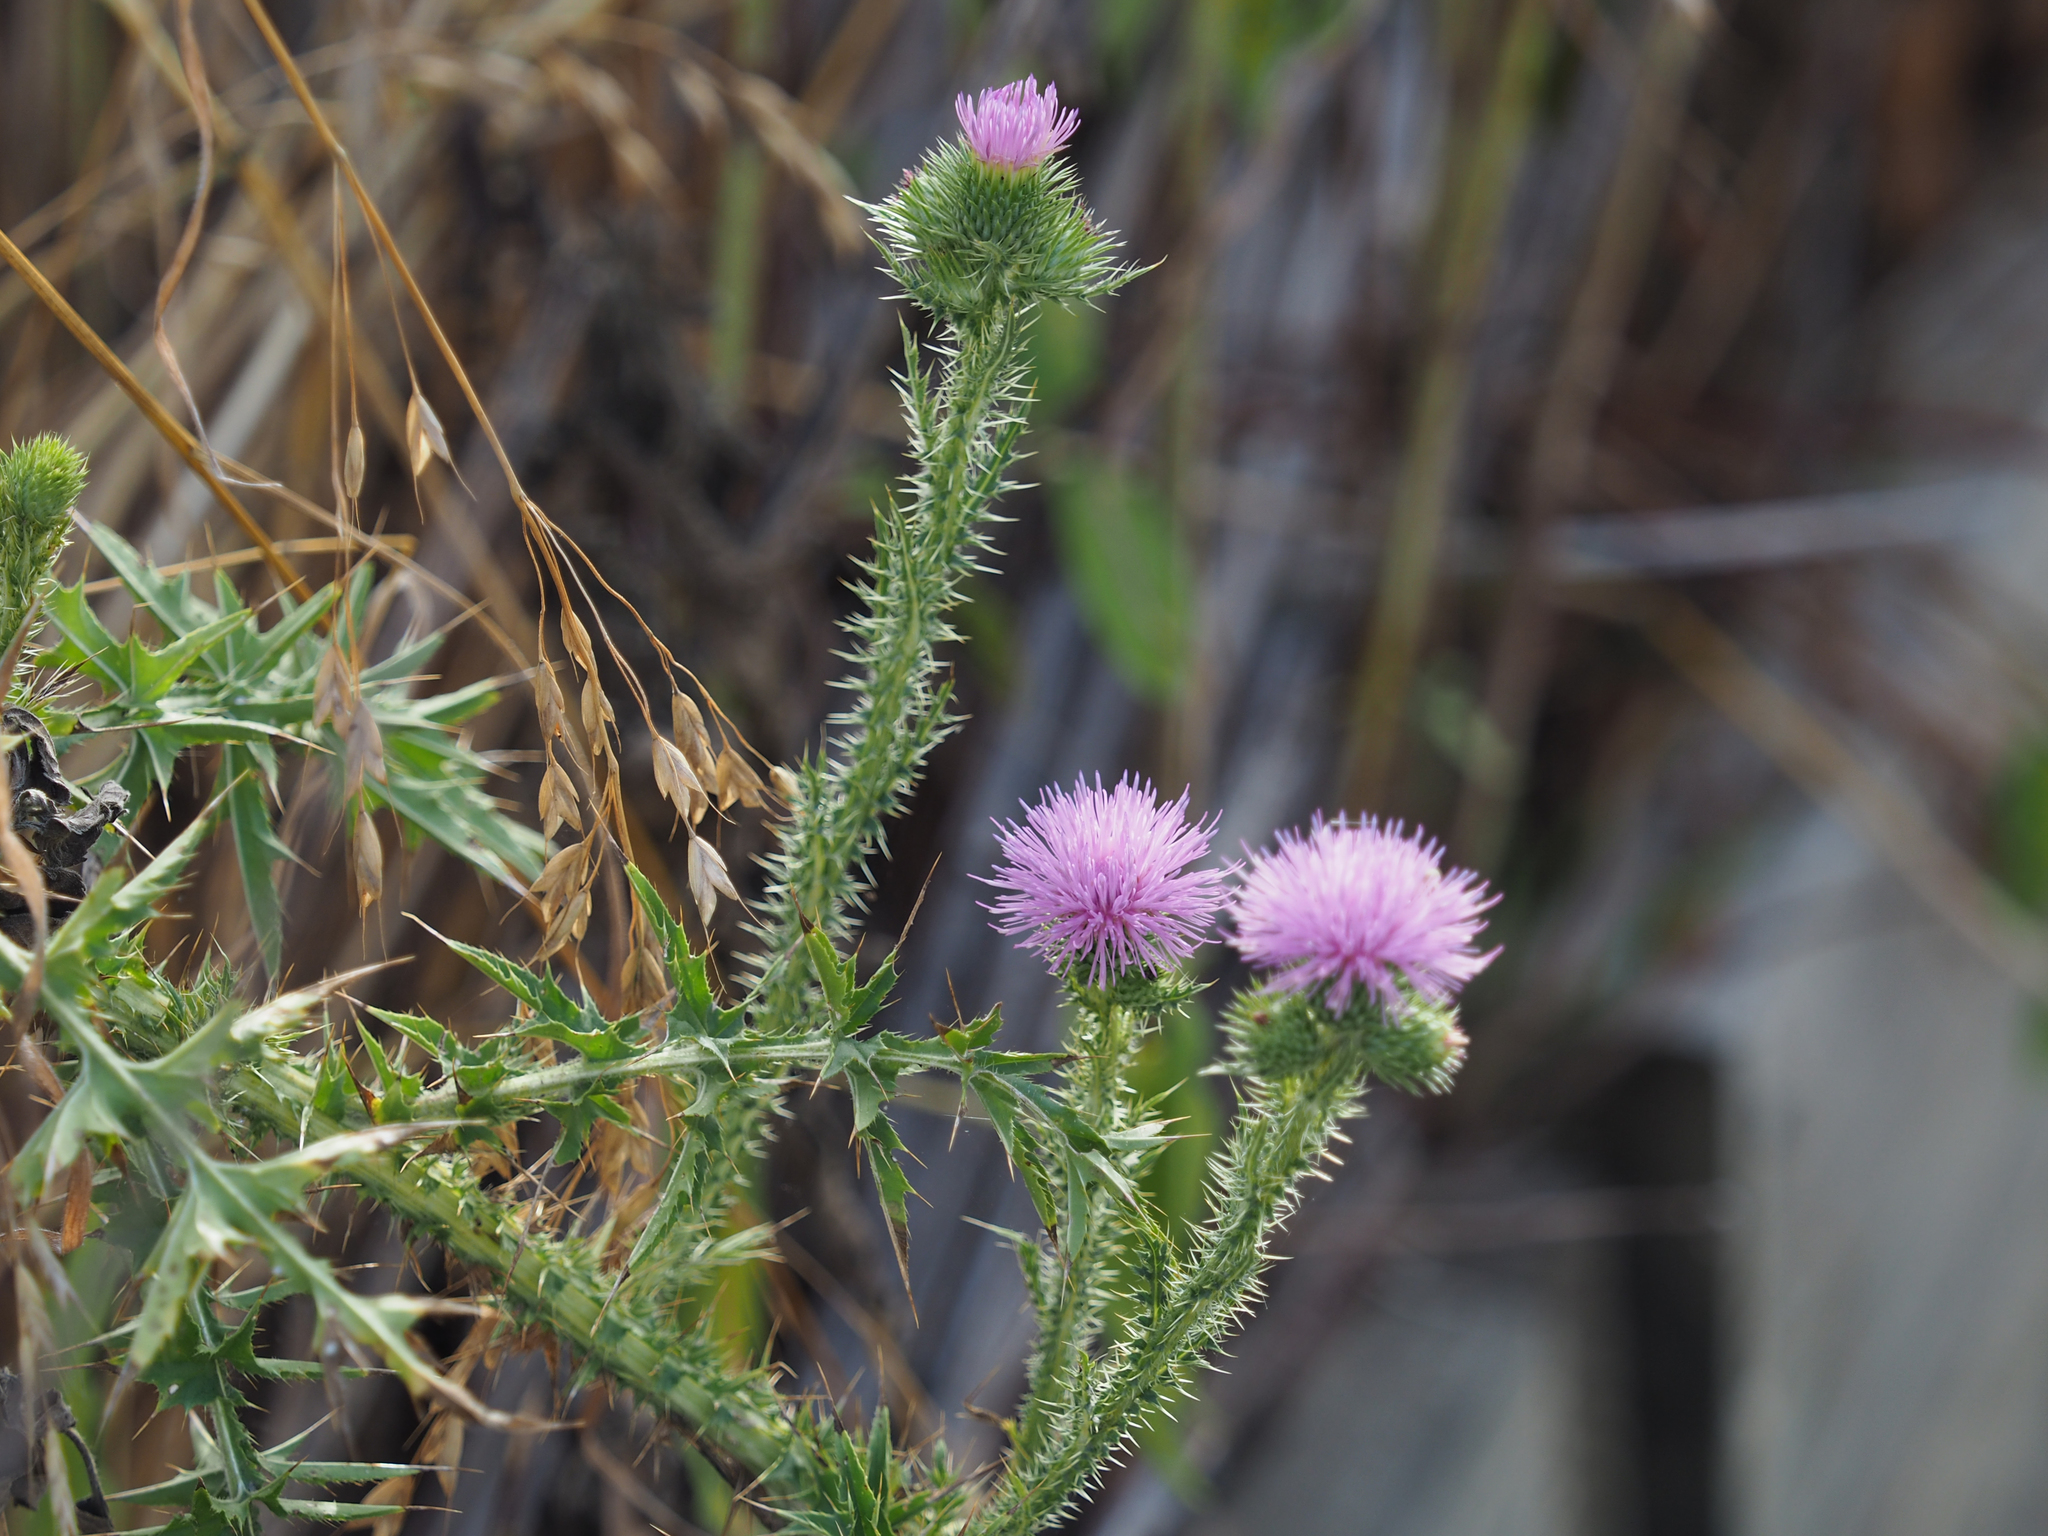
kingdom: Plantae
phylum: Tracheophyta
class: Magnoliopsida
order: Asterales
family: Asteraceae
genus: Carduus
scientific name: Carduus acanthoides
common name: Plumeless thistle
